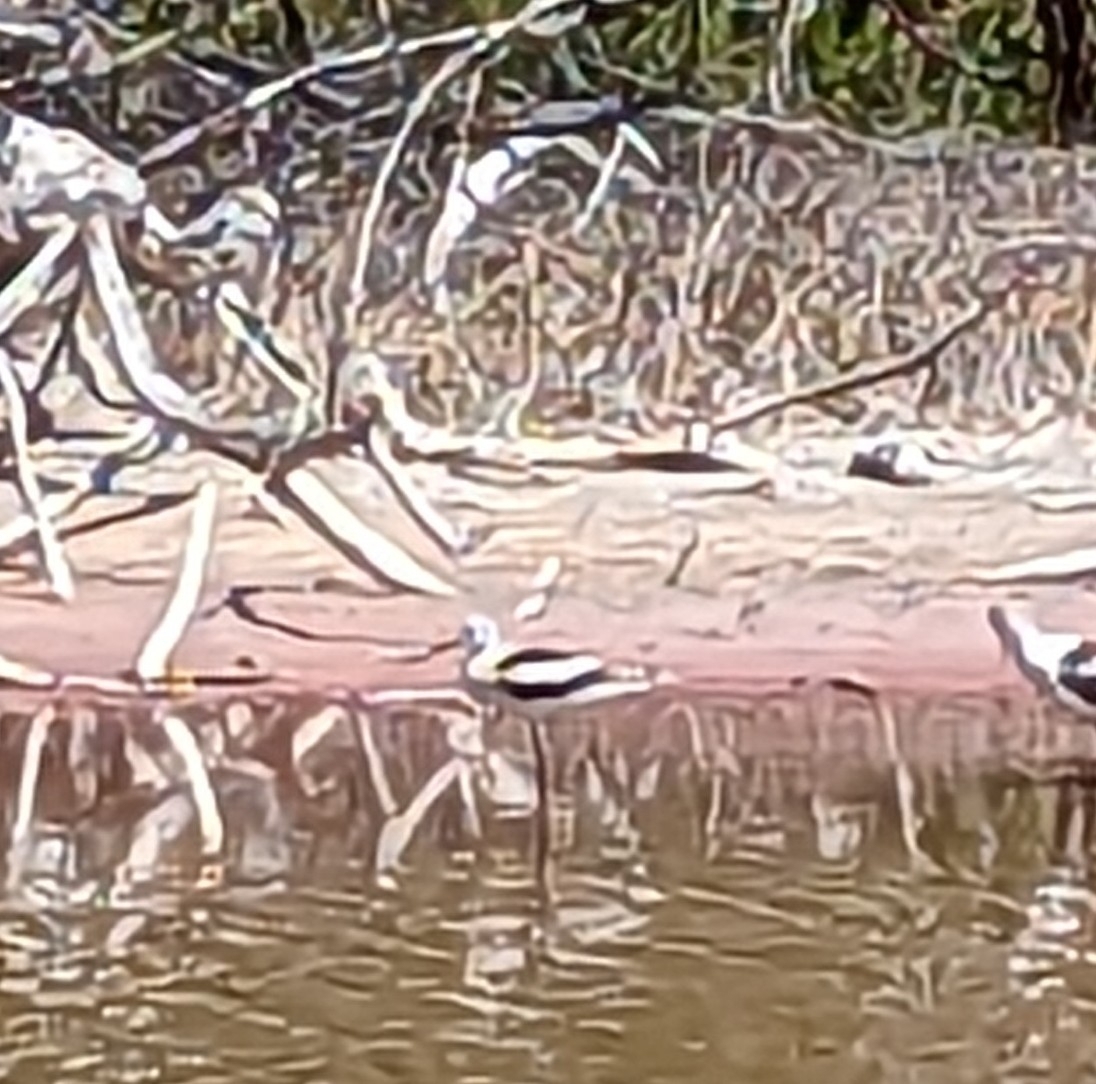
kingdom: Animalia
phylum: Chordata
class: Aves
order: Charadriiformes
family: Recurvirostridae
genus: Recurvirostra
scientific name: Recurvirostra americana
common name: American avocet
